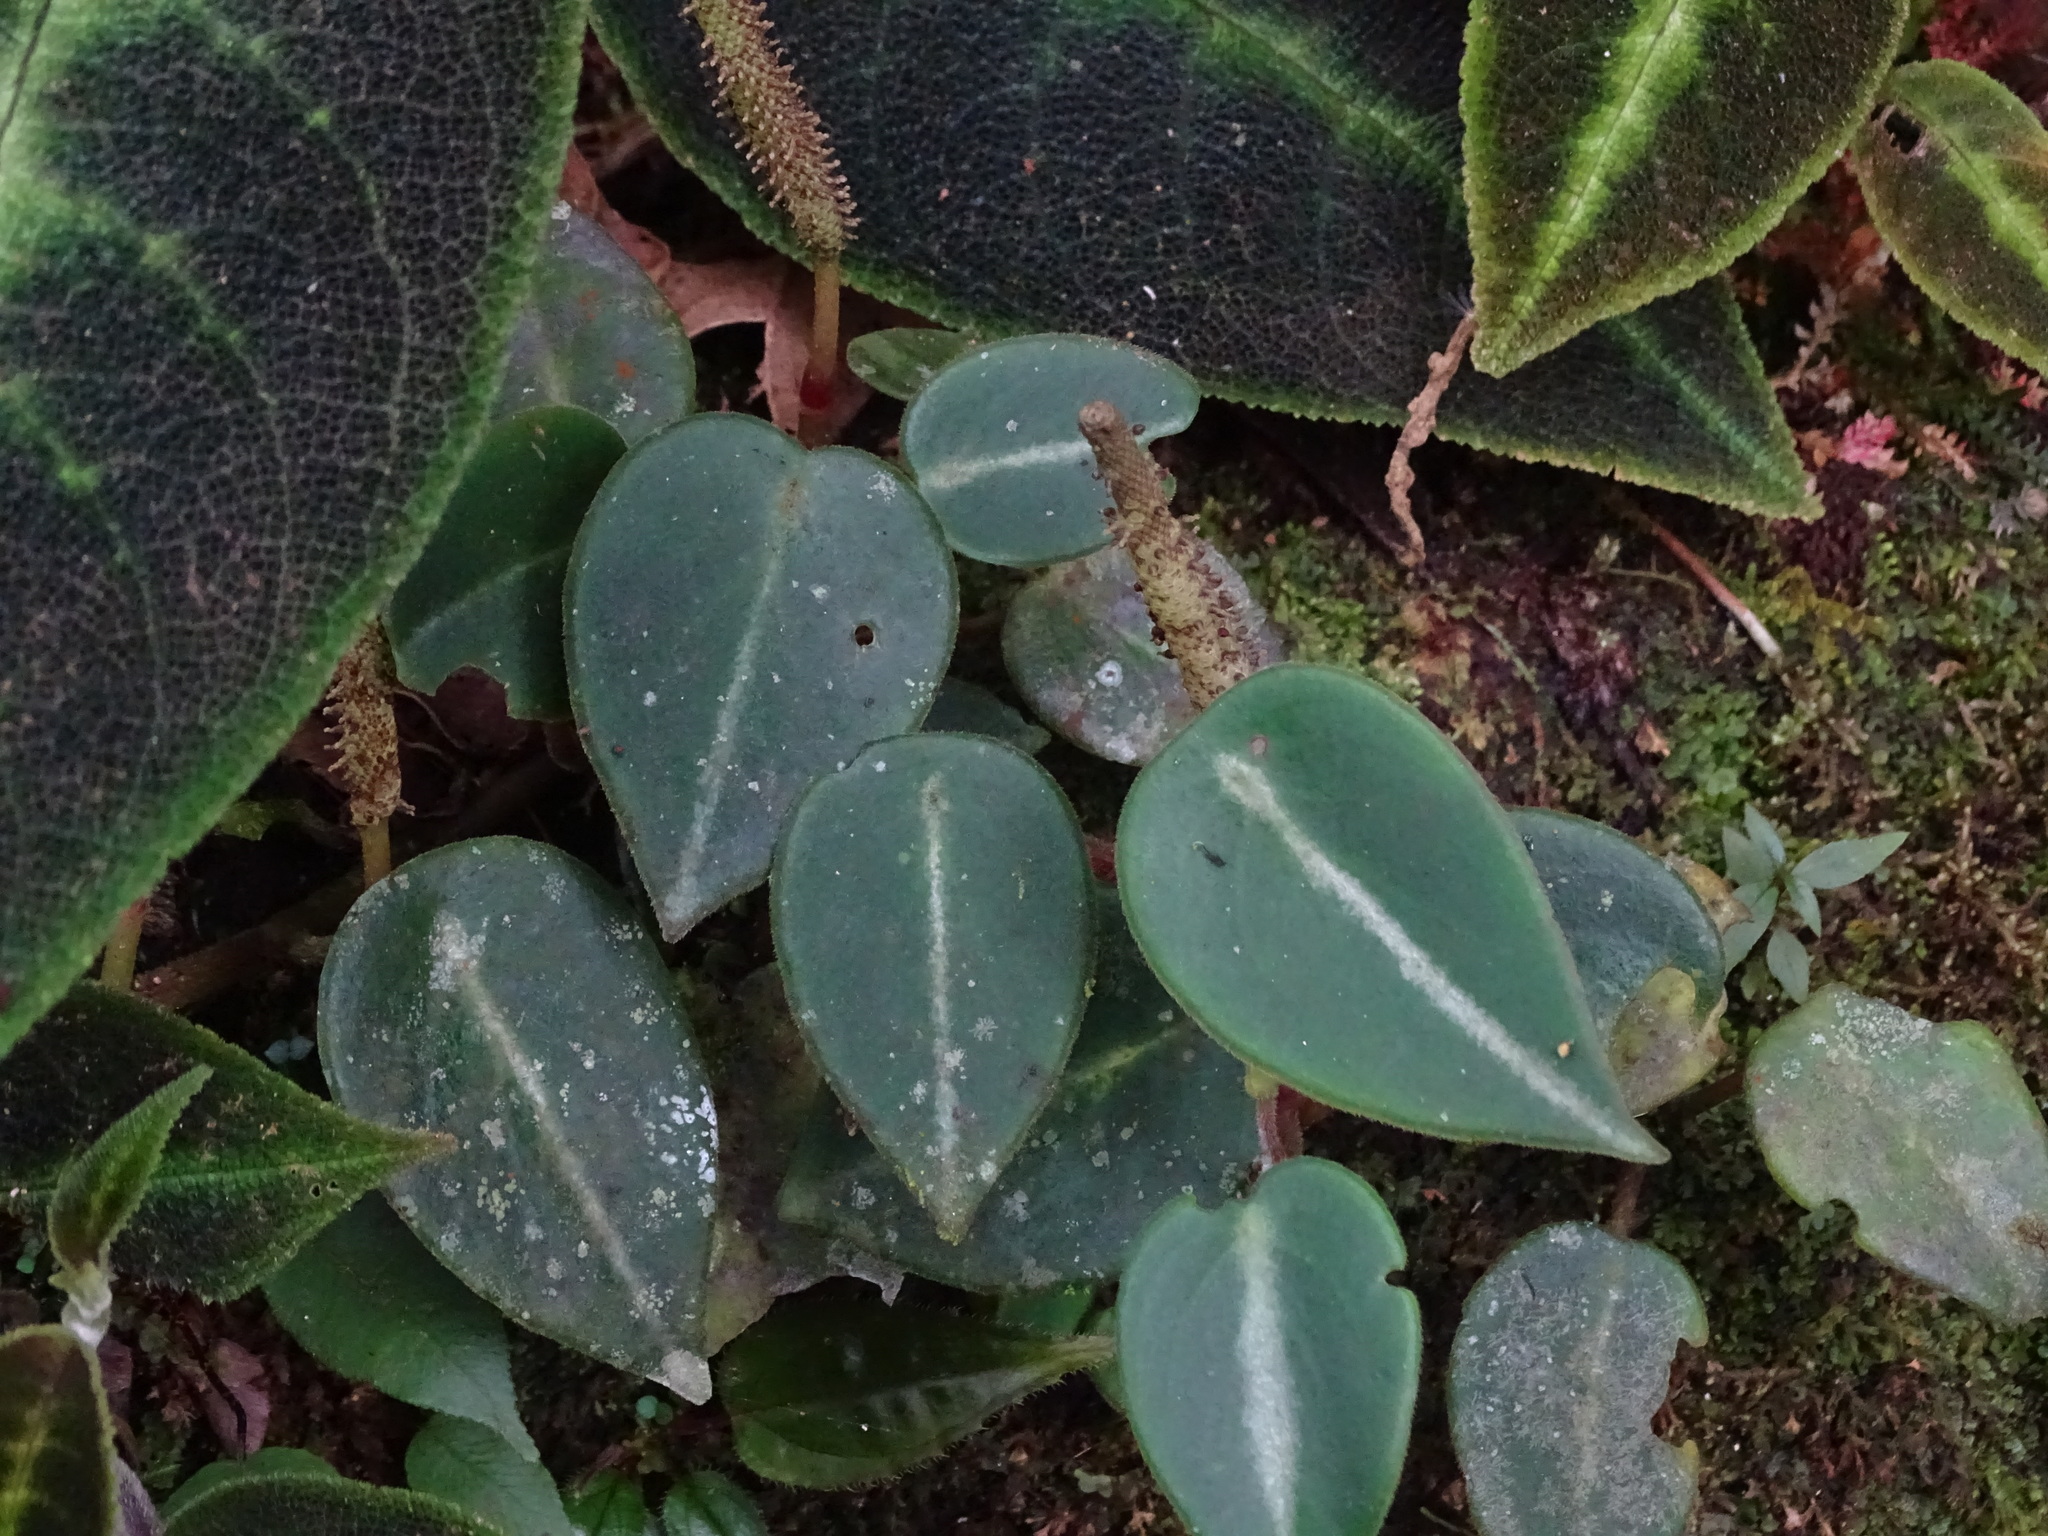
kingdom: Plantae
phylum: Tracheophyta
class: Magnoliopsida
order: Piperales
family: Piperaceae
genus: Peperomia
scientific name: Peperomia eburnea
